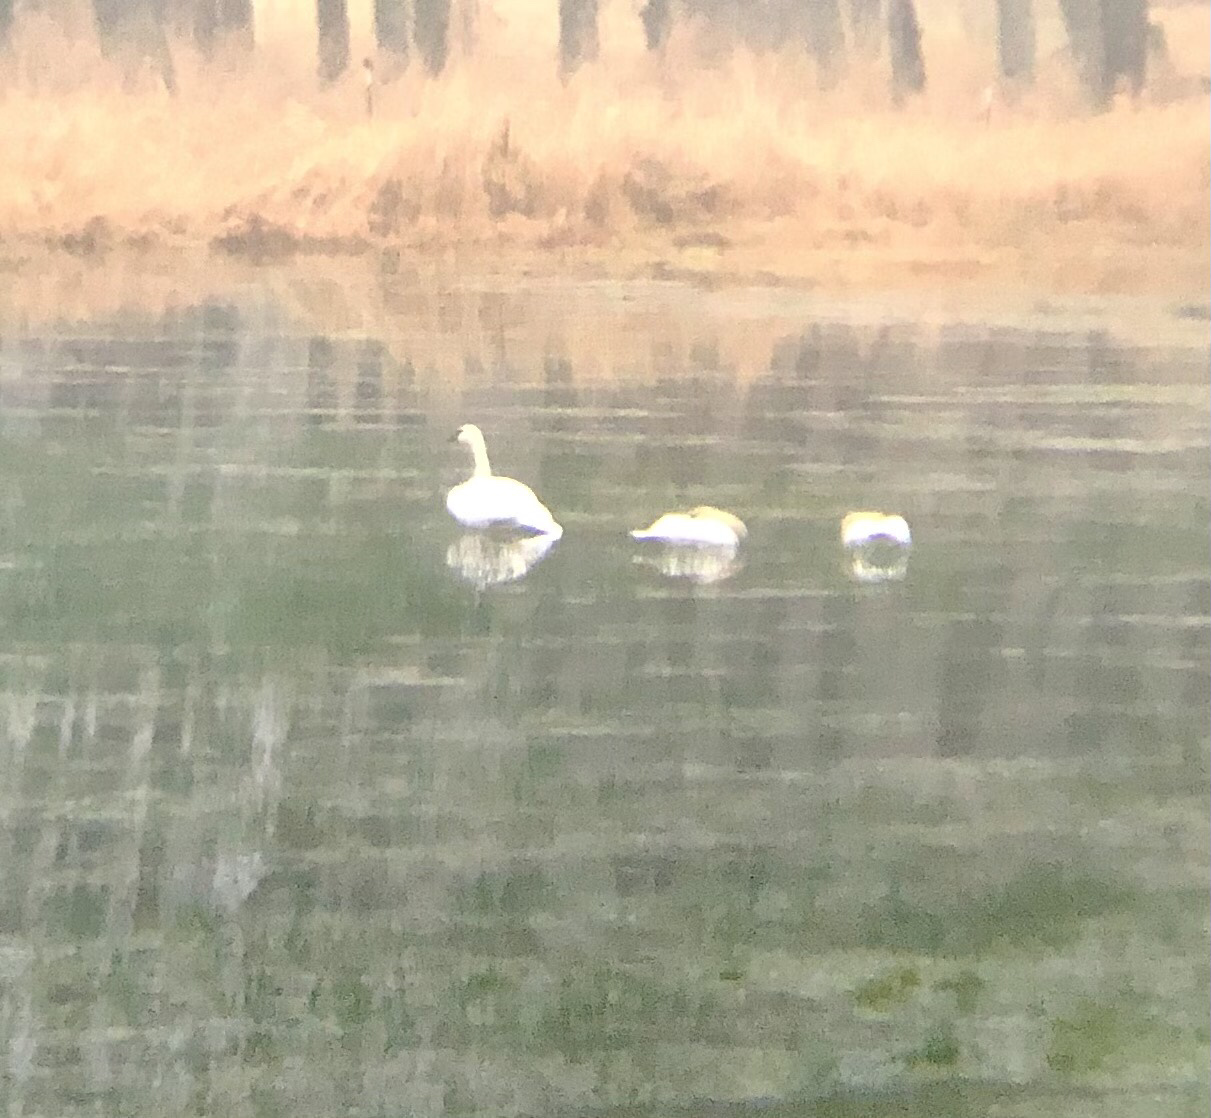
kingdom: Animalia
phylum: Chordata
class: Aves
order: Anseriformes
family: Anatidae
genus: Cygnus
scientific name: Cygnus buccinator
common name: Trumpeter swan
